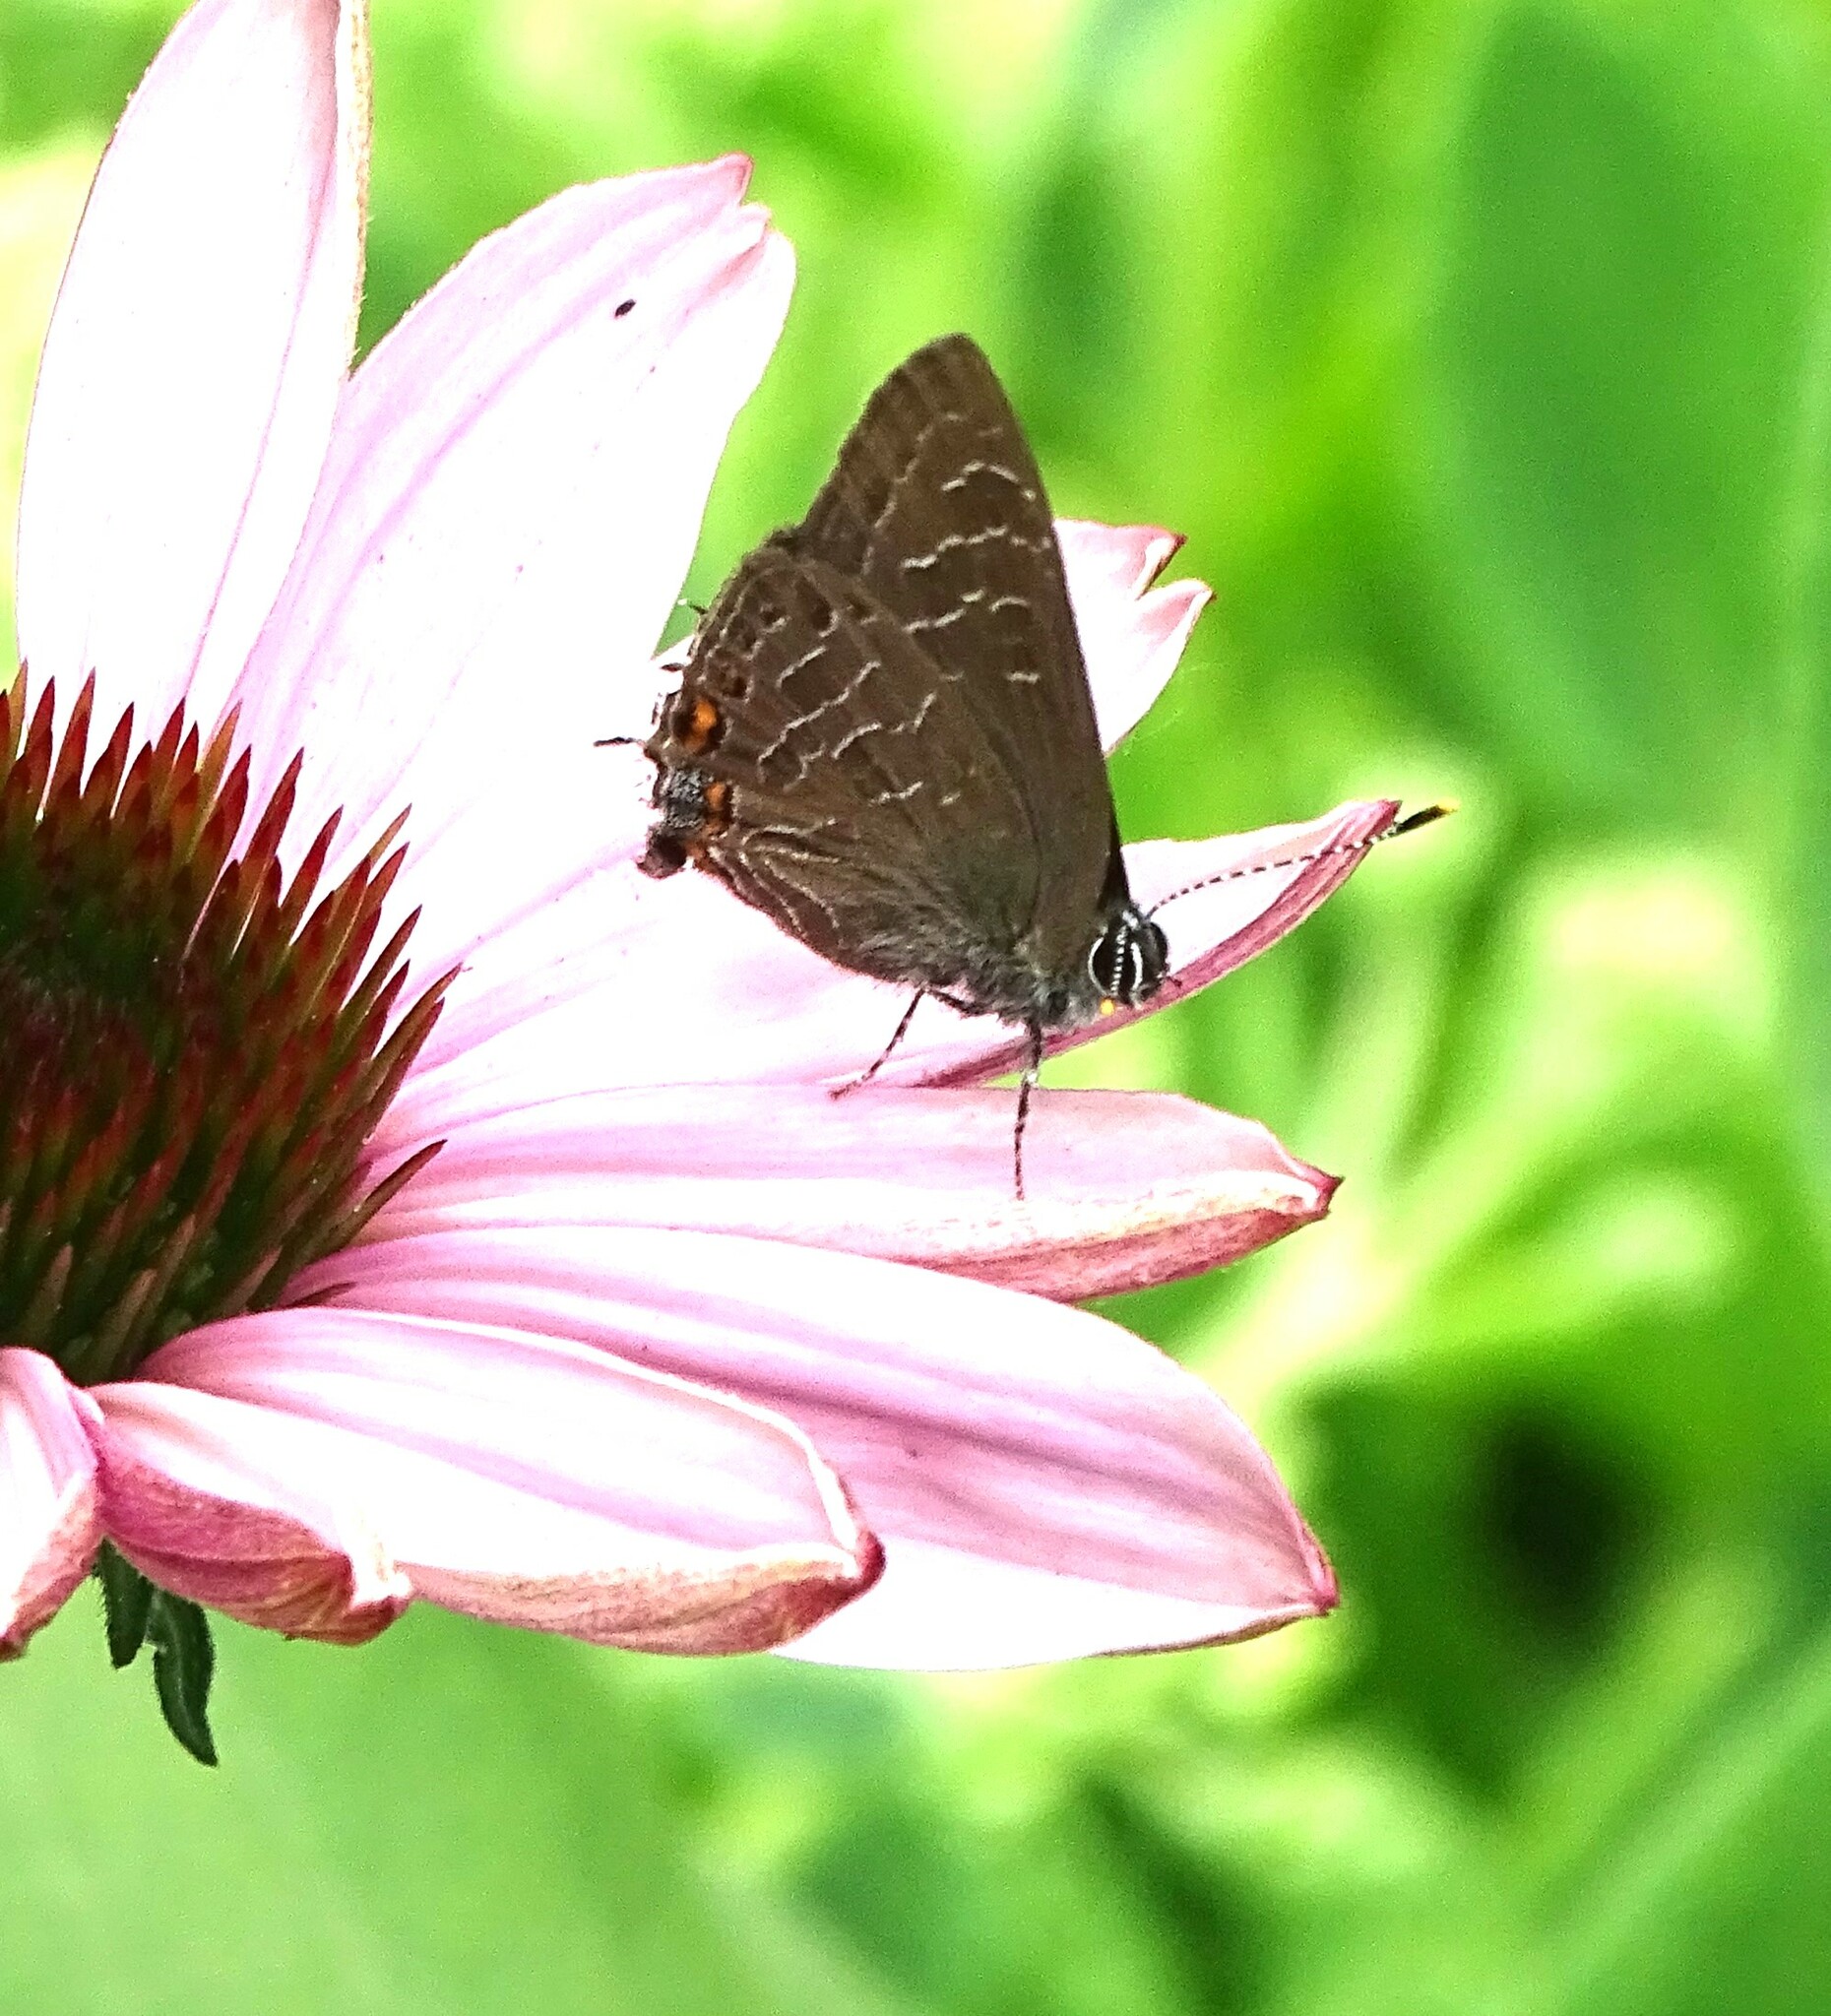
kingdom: Animalia
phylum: Arthropoda
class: Insecta
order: Lepidoptera
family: Lycaenidae
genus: Satyrium
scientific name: Satyrium liparops
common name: Striped hairstreak
